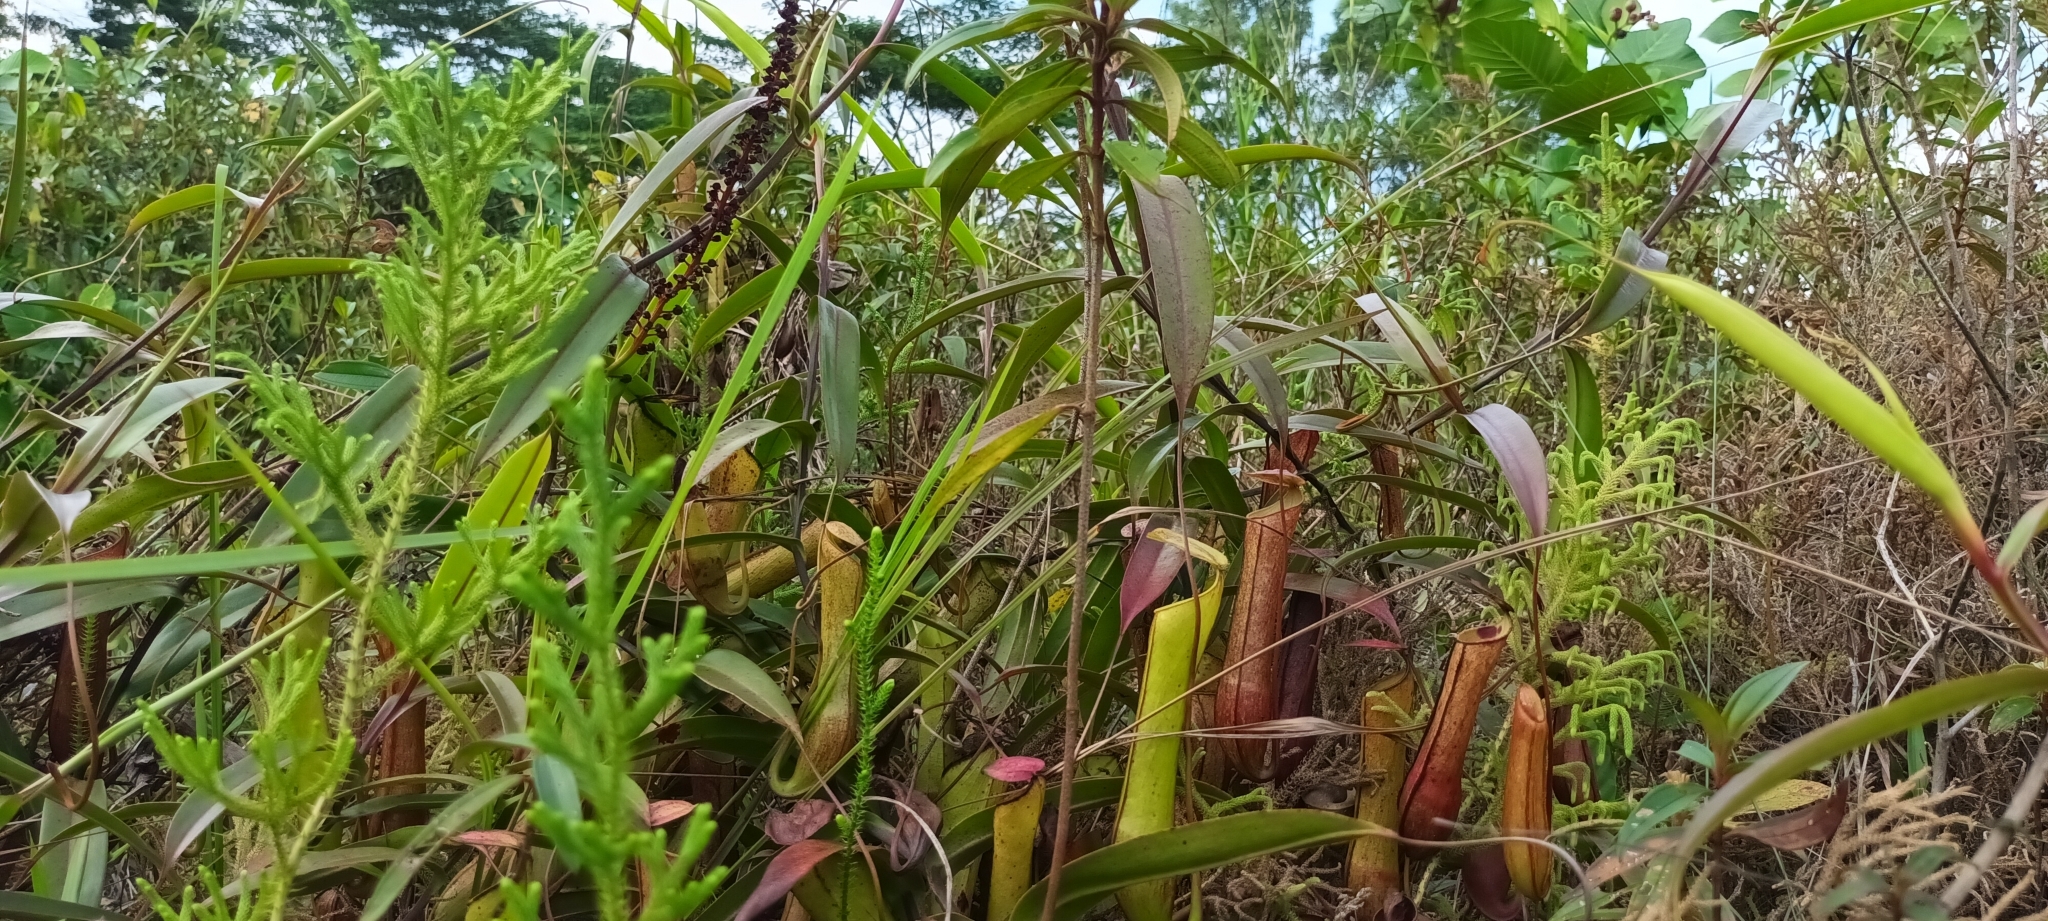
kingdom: Plantae
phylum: Tracheophyta
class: Magnoliopsida
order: Caryophyllales
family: Nepenthaceae
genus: Nepenthes
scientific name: Nepenthes gracilis
